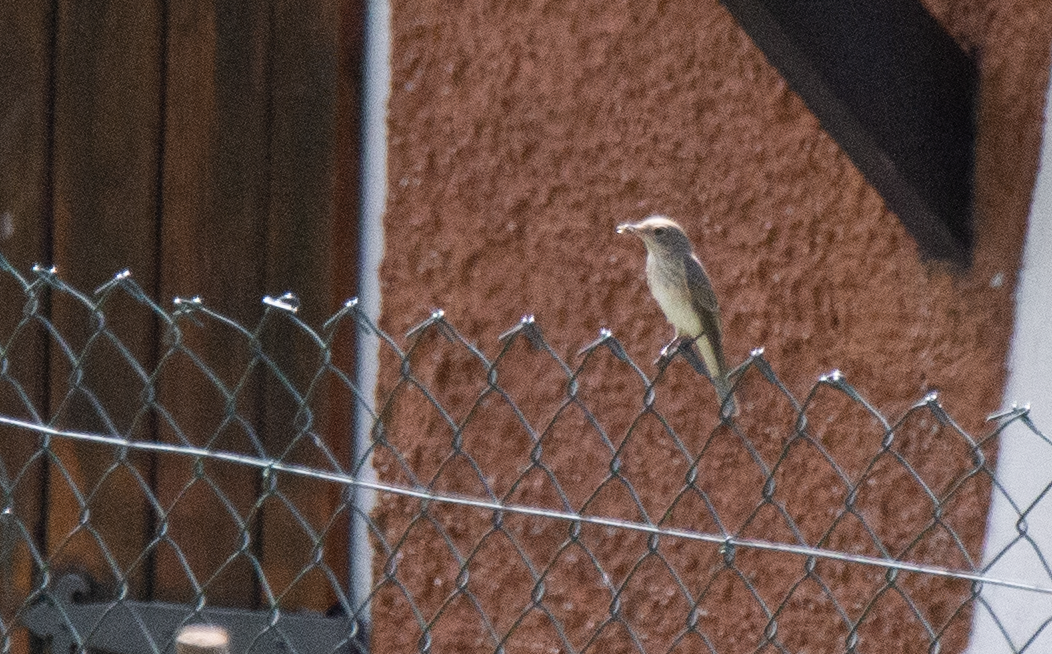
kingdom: Animalia
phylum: Chordata
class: Aves
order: Passeriformes
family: Muscicapidae
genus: Muscicapa
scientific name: Muscicapa striata
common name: Spotted flycatcher
